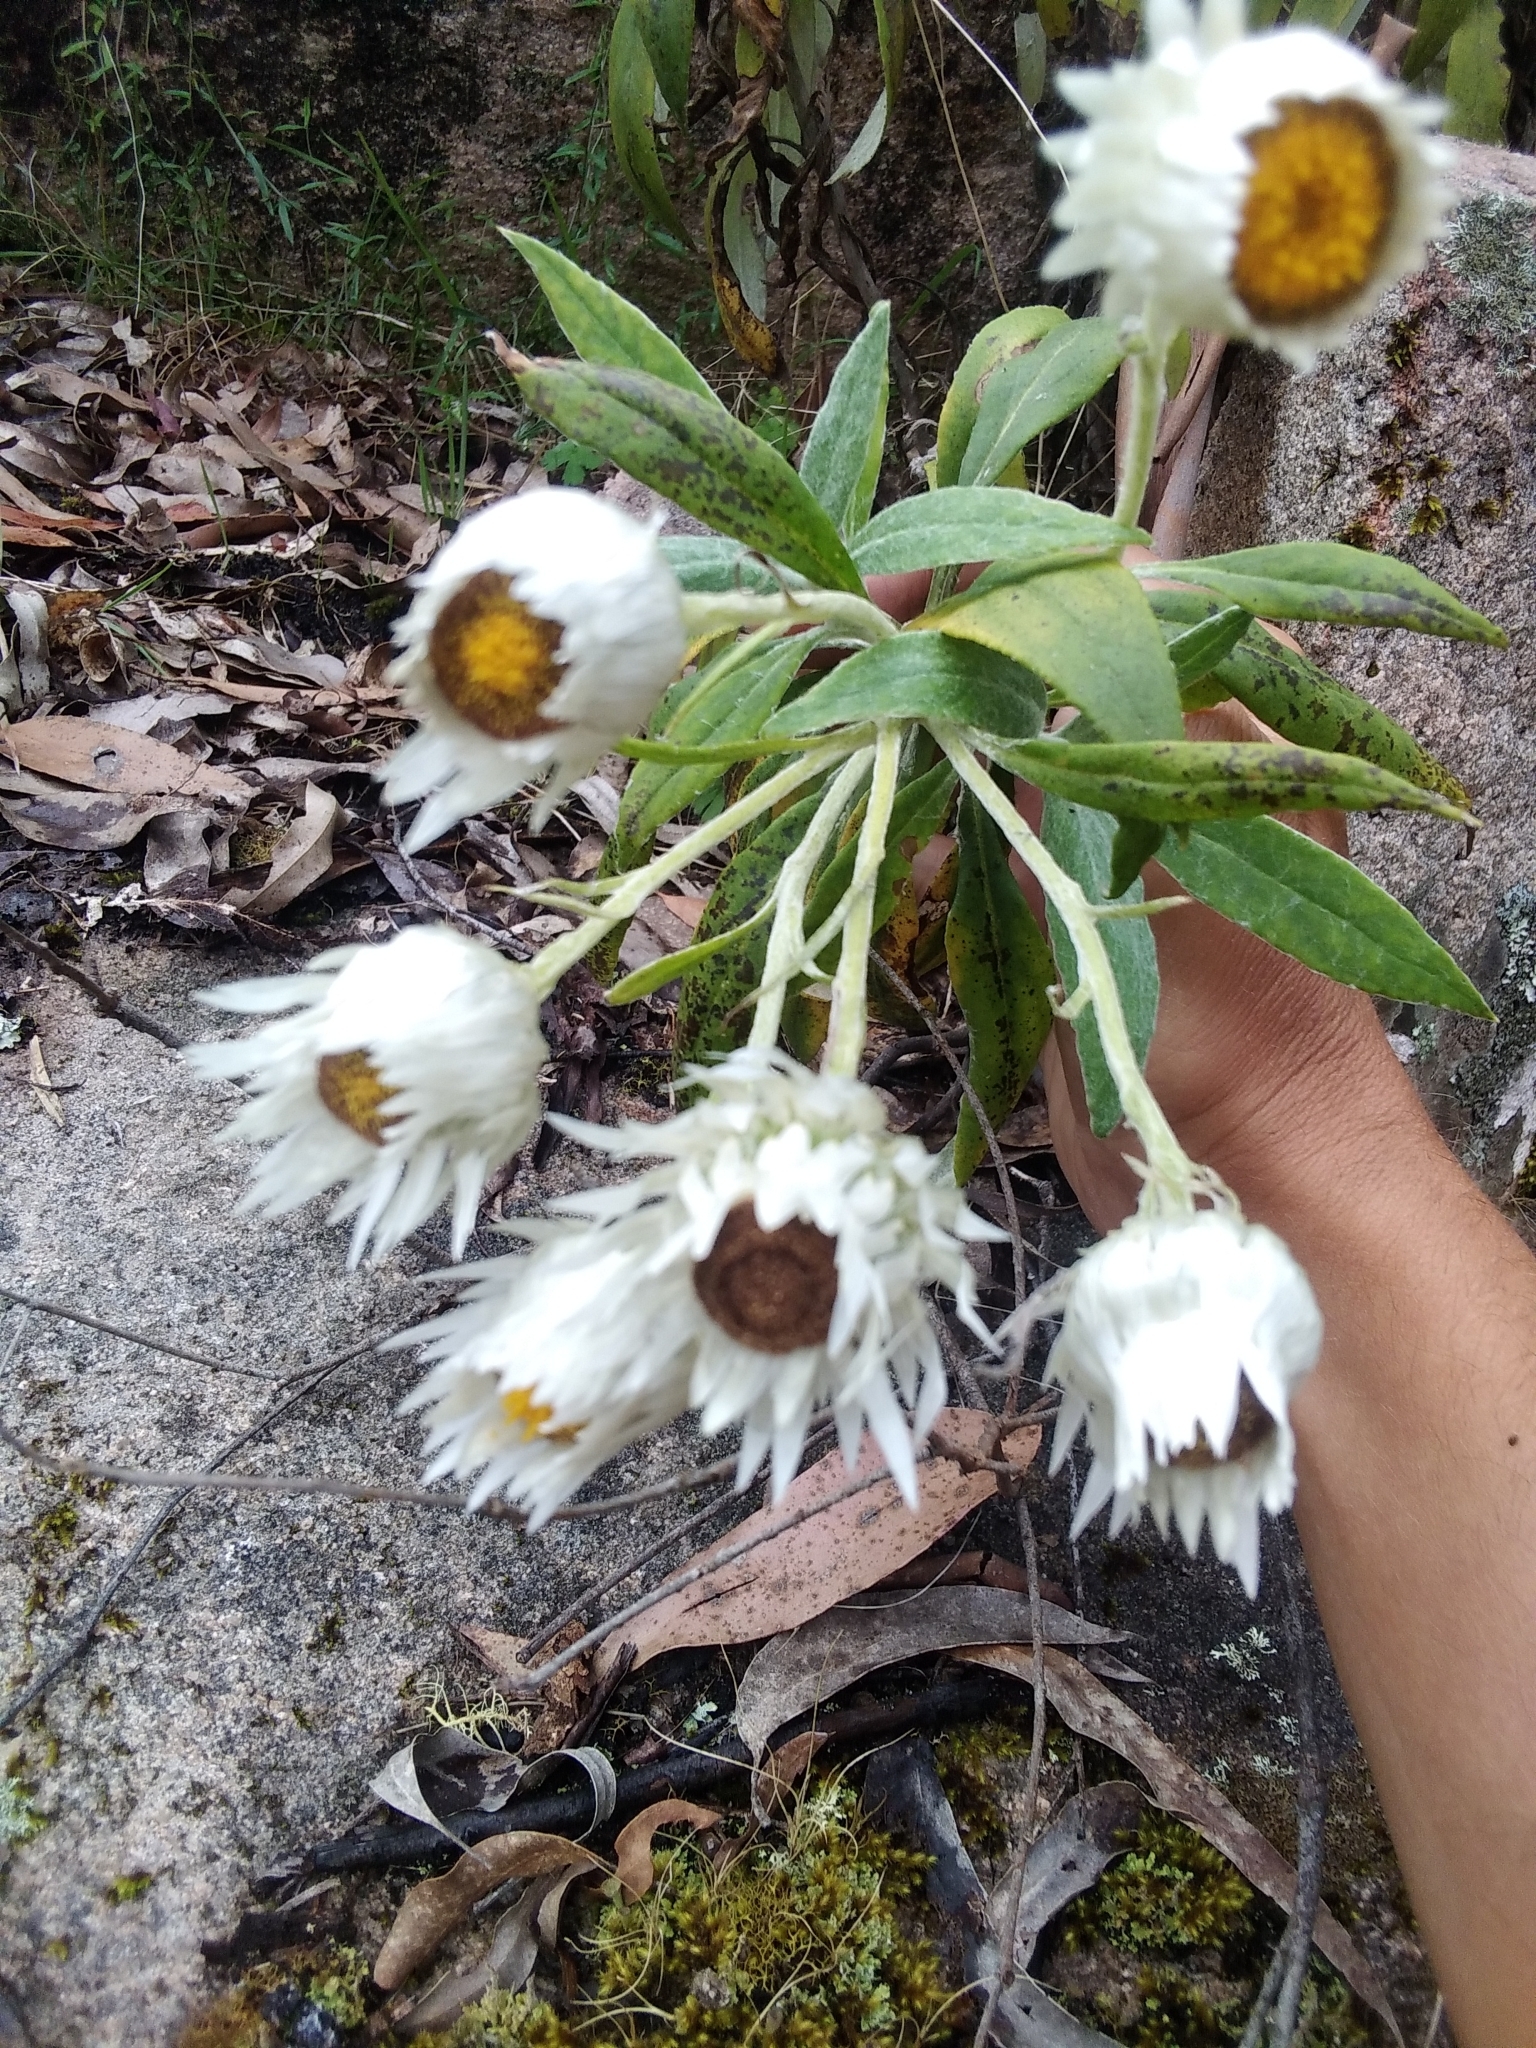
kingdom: Plantae
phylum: Tracheophyta
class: Magnoliopsida
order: Asterales
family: Asteraceae
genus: Leucozoma
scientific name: Leucozoma elatum
